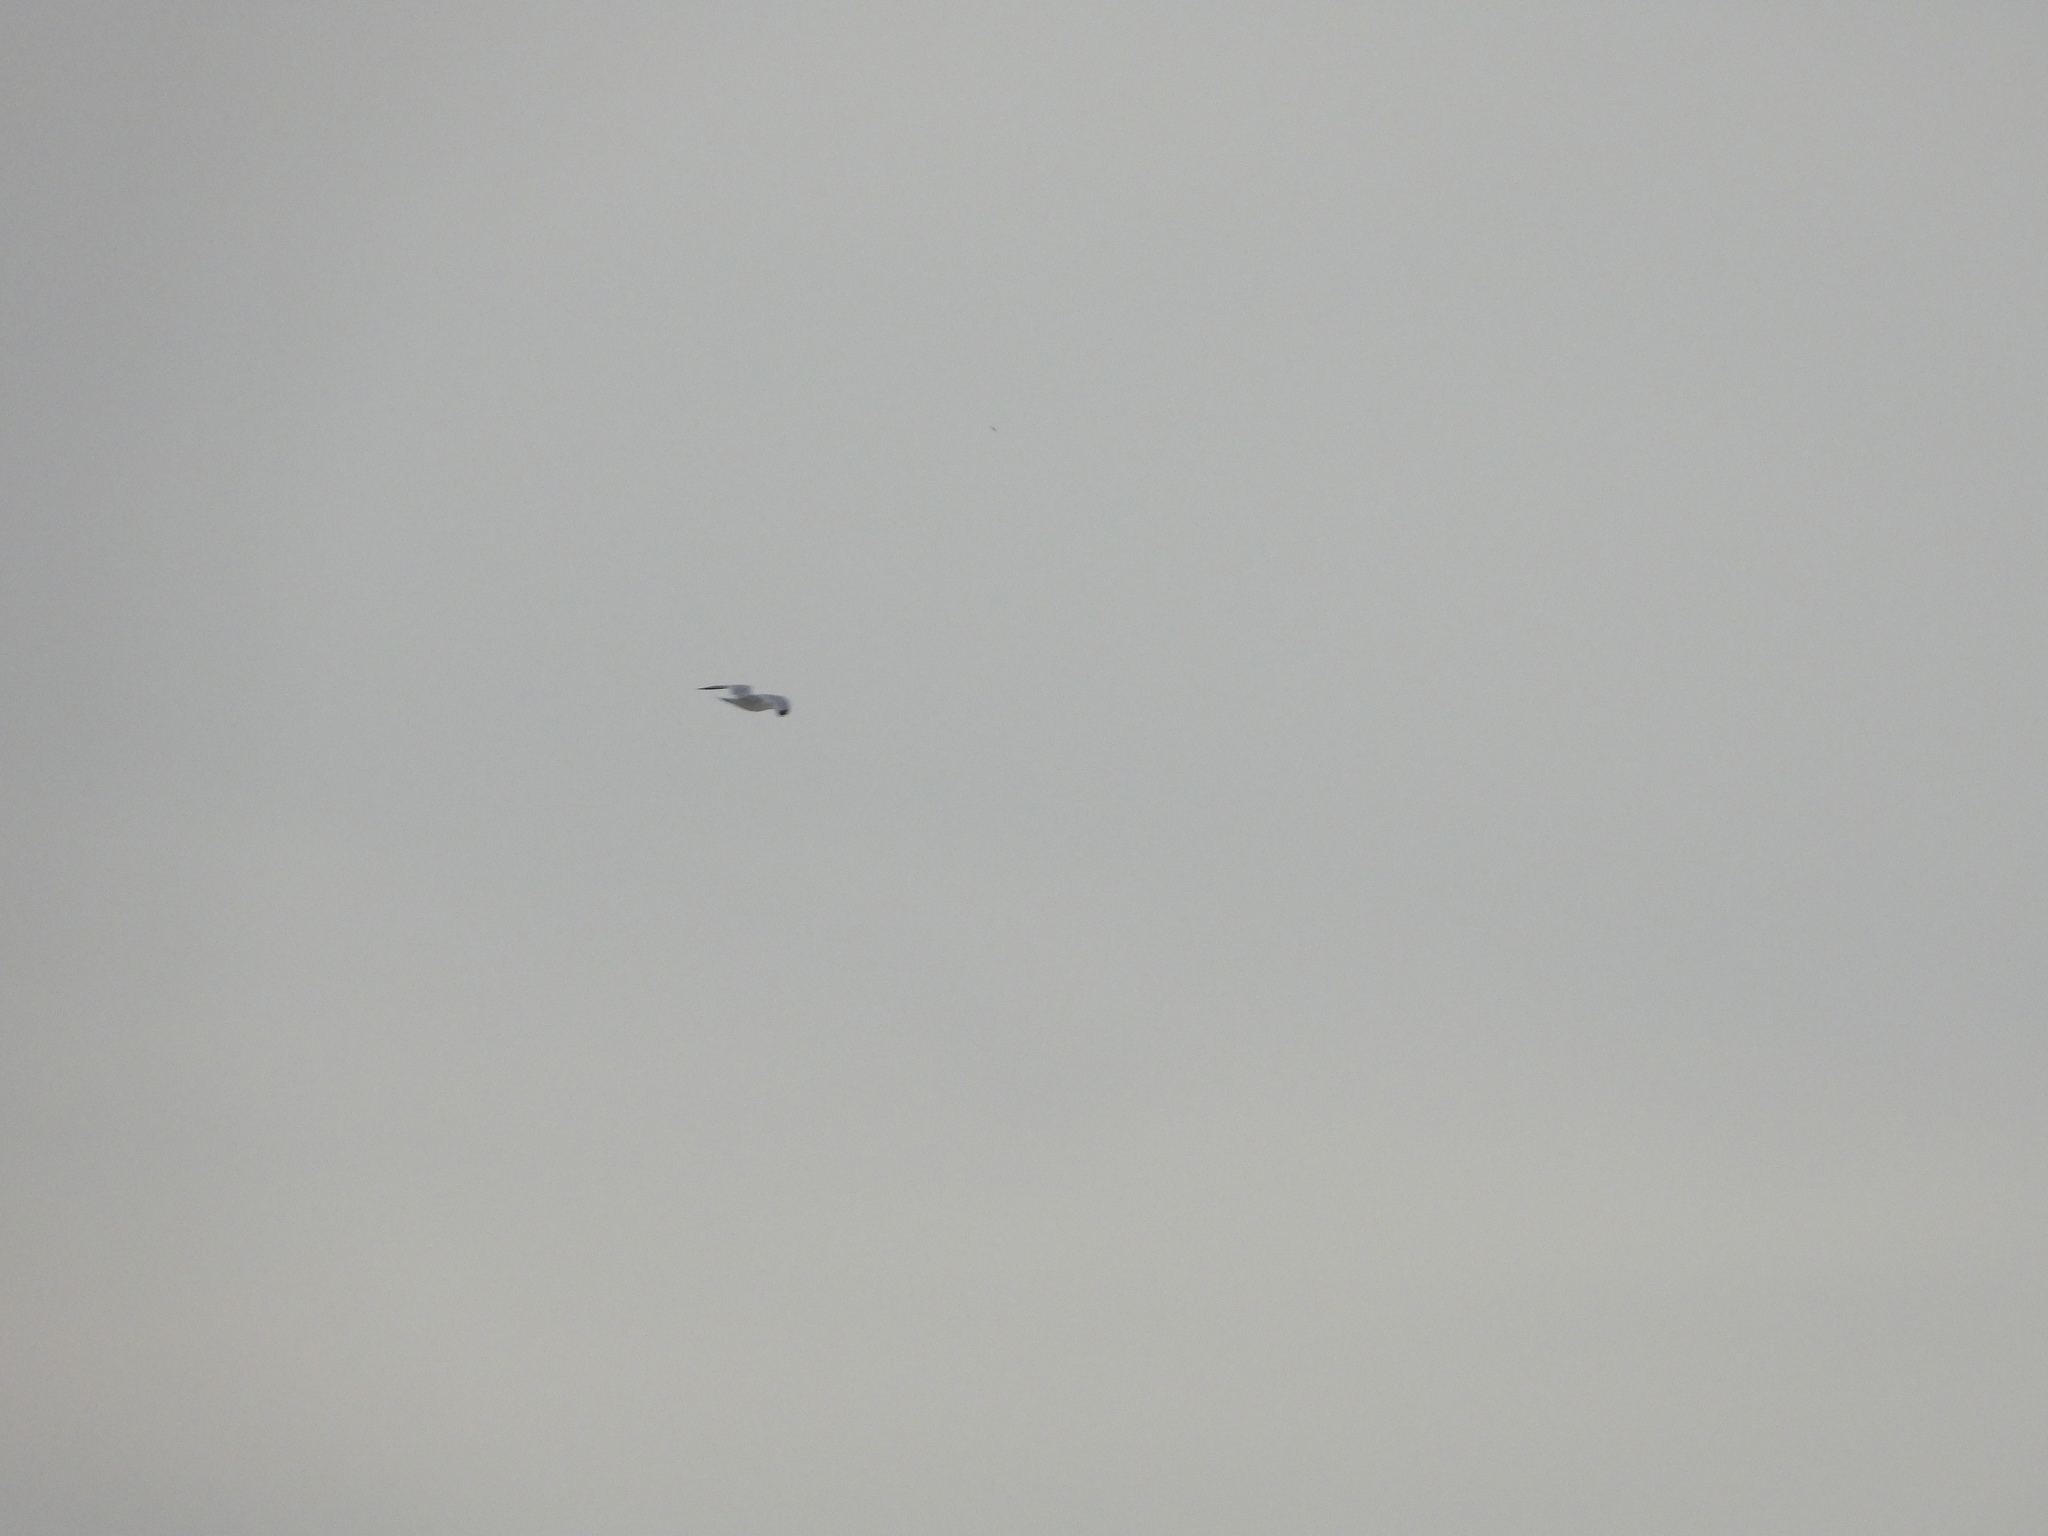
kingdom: Animalia
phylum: Chordata
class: Aves
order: Charadriiformes
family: Laridae
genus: Larus
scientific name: Larus delawarensis
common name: Ring-billed gull
